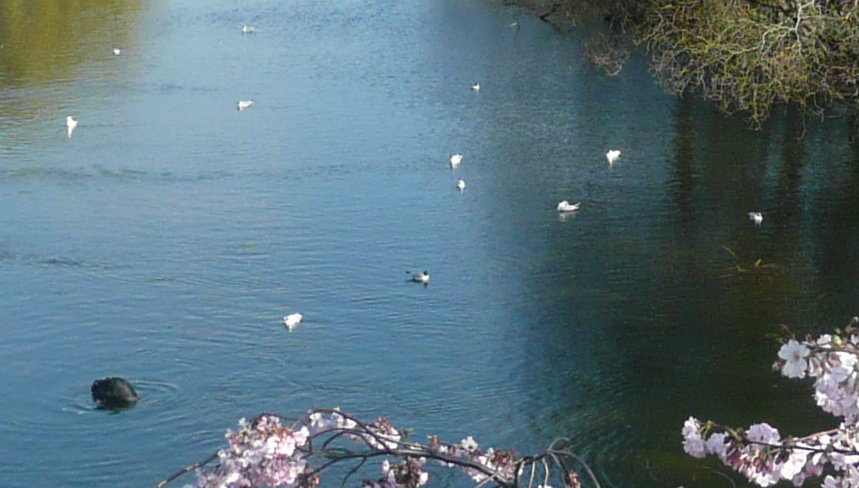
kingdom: Animalia
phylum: Chordata
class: Aves
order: Charadriiformes
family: Laridae
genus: Chroicocephalus
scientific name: Chroicocephalus ridibundus
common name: Black-headed gull
